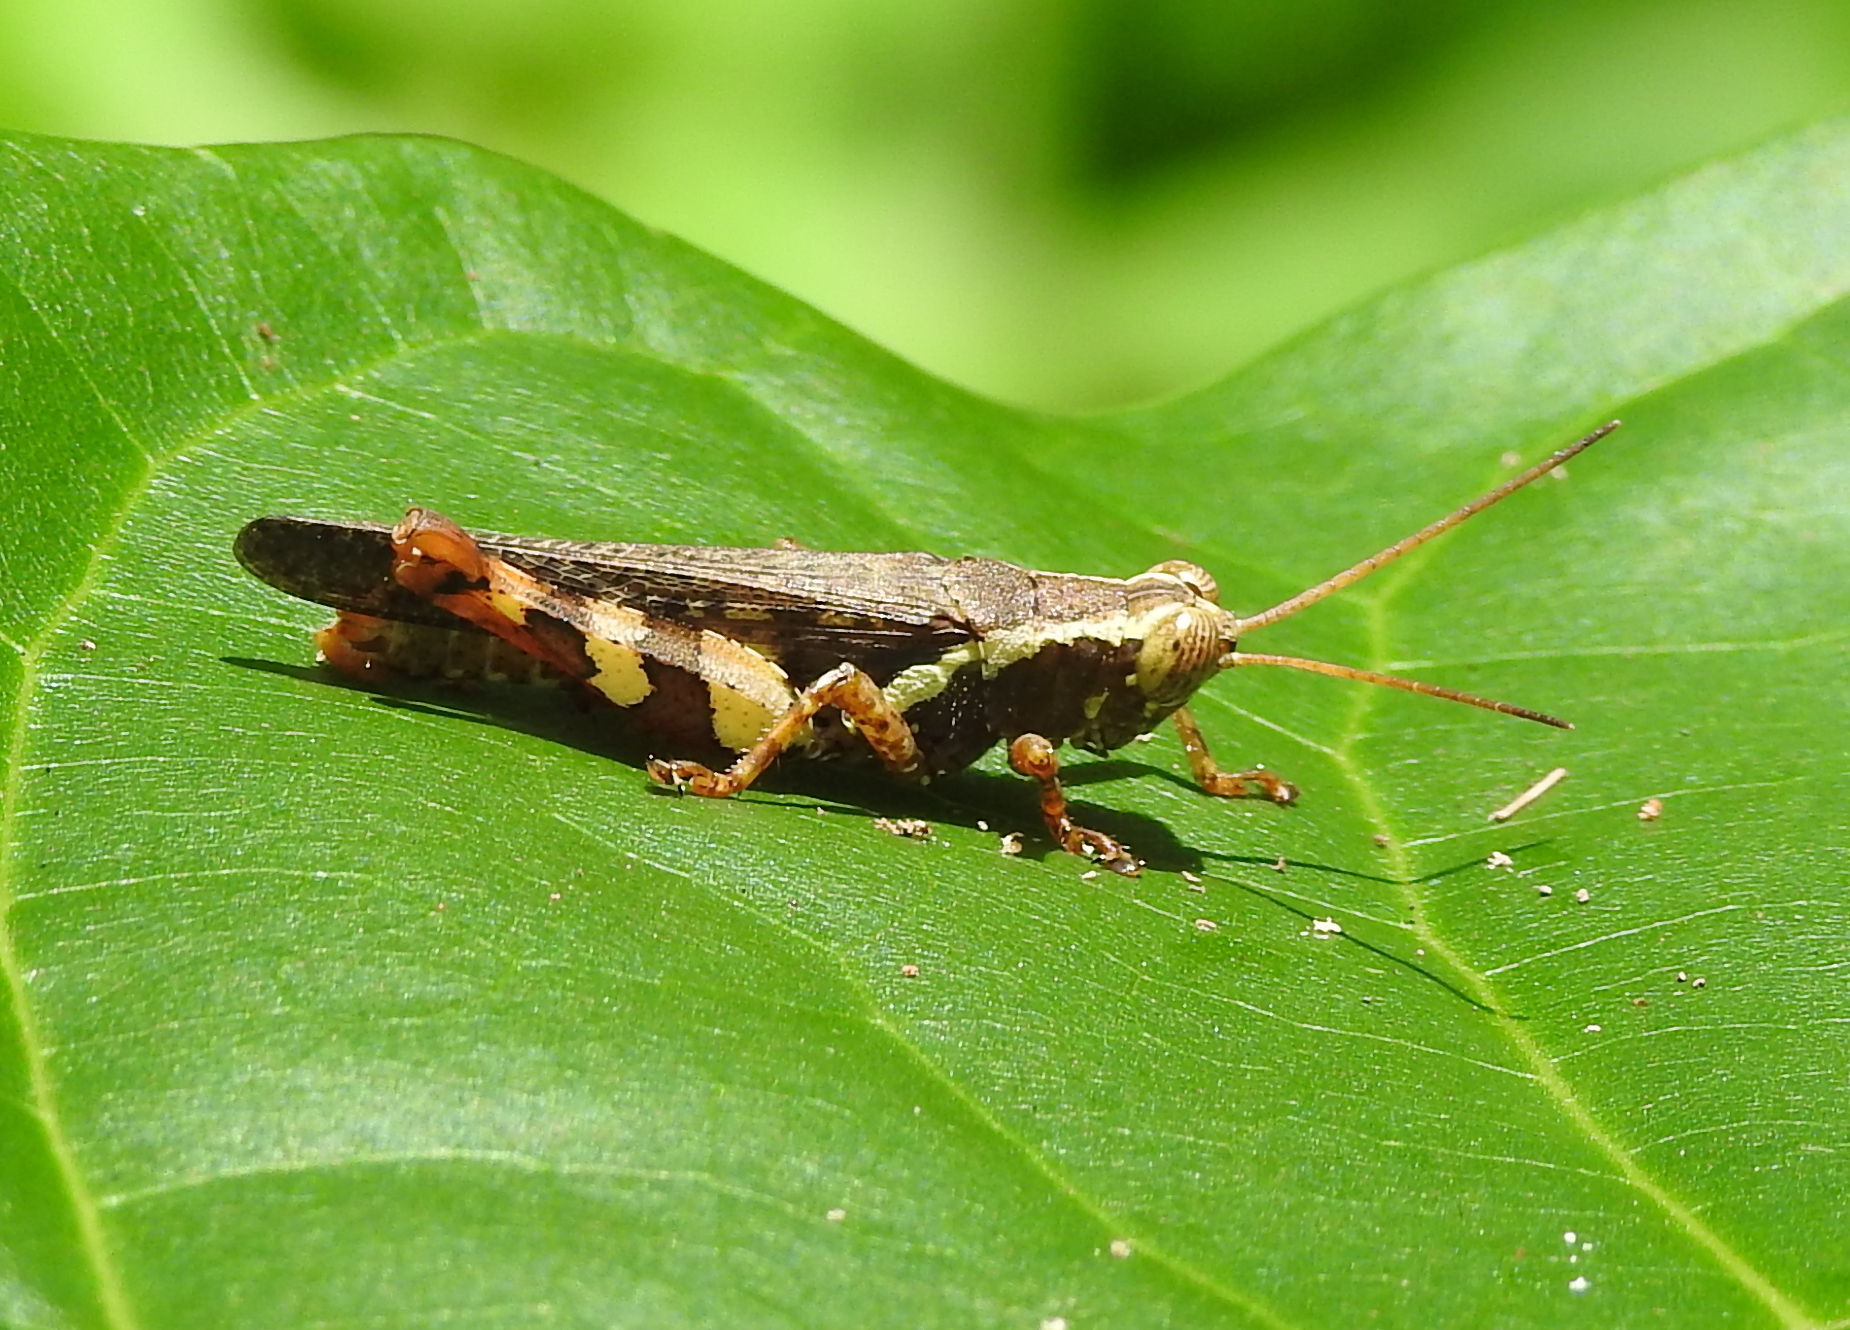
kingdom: Animalia
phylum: Arthropoda
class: Insecta
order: Orthoptera
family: Acrididae
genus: Xenocatantops
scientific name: Xenocatantops humile
